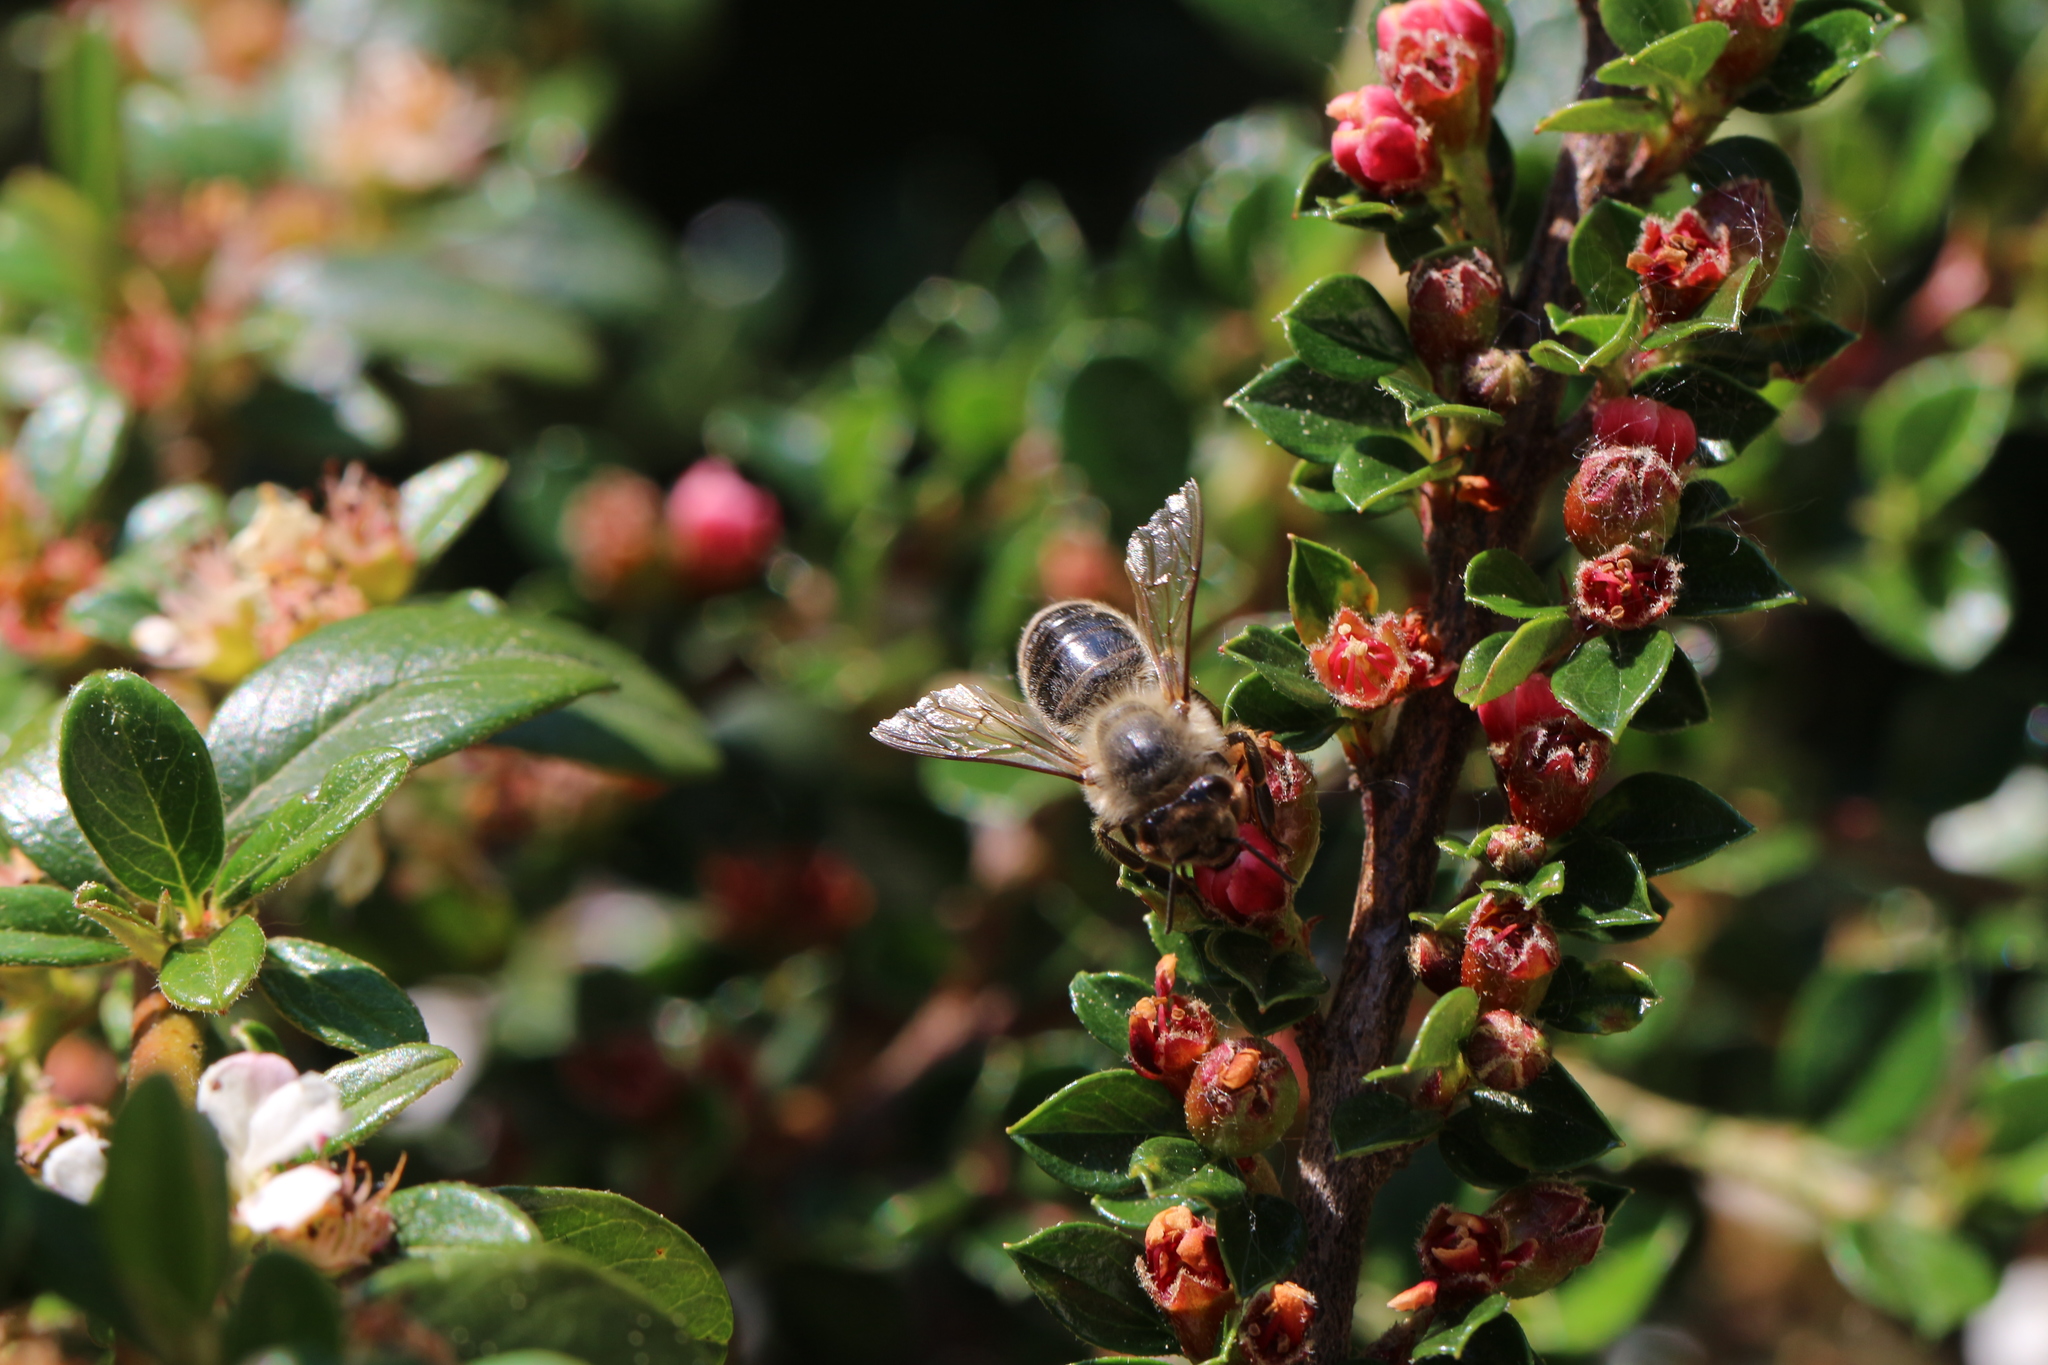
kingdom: Animalia
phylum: Arthropoda
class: Insecta
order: Hymenoptera
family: Apidae
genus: Apis
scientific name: Apis mellifera
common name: Honey bee
